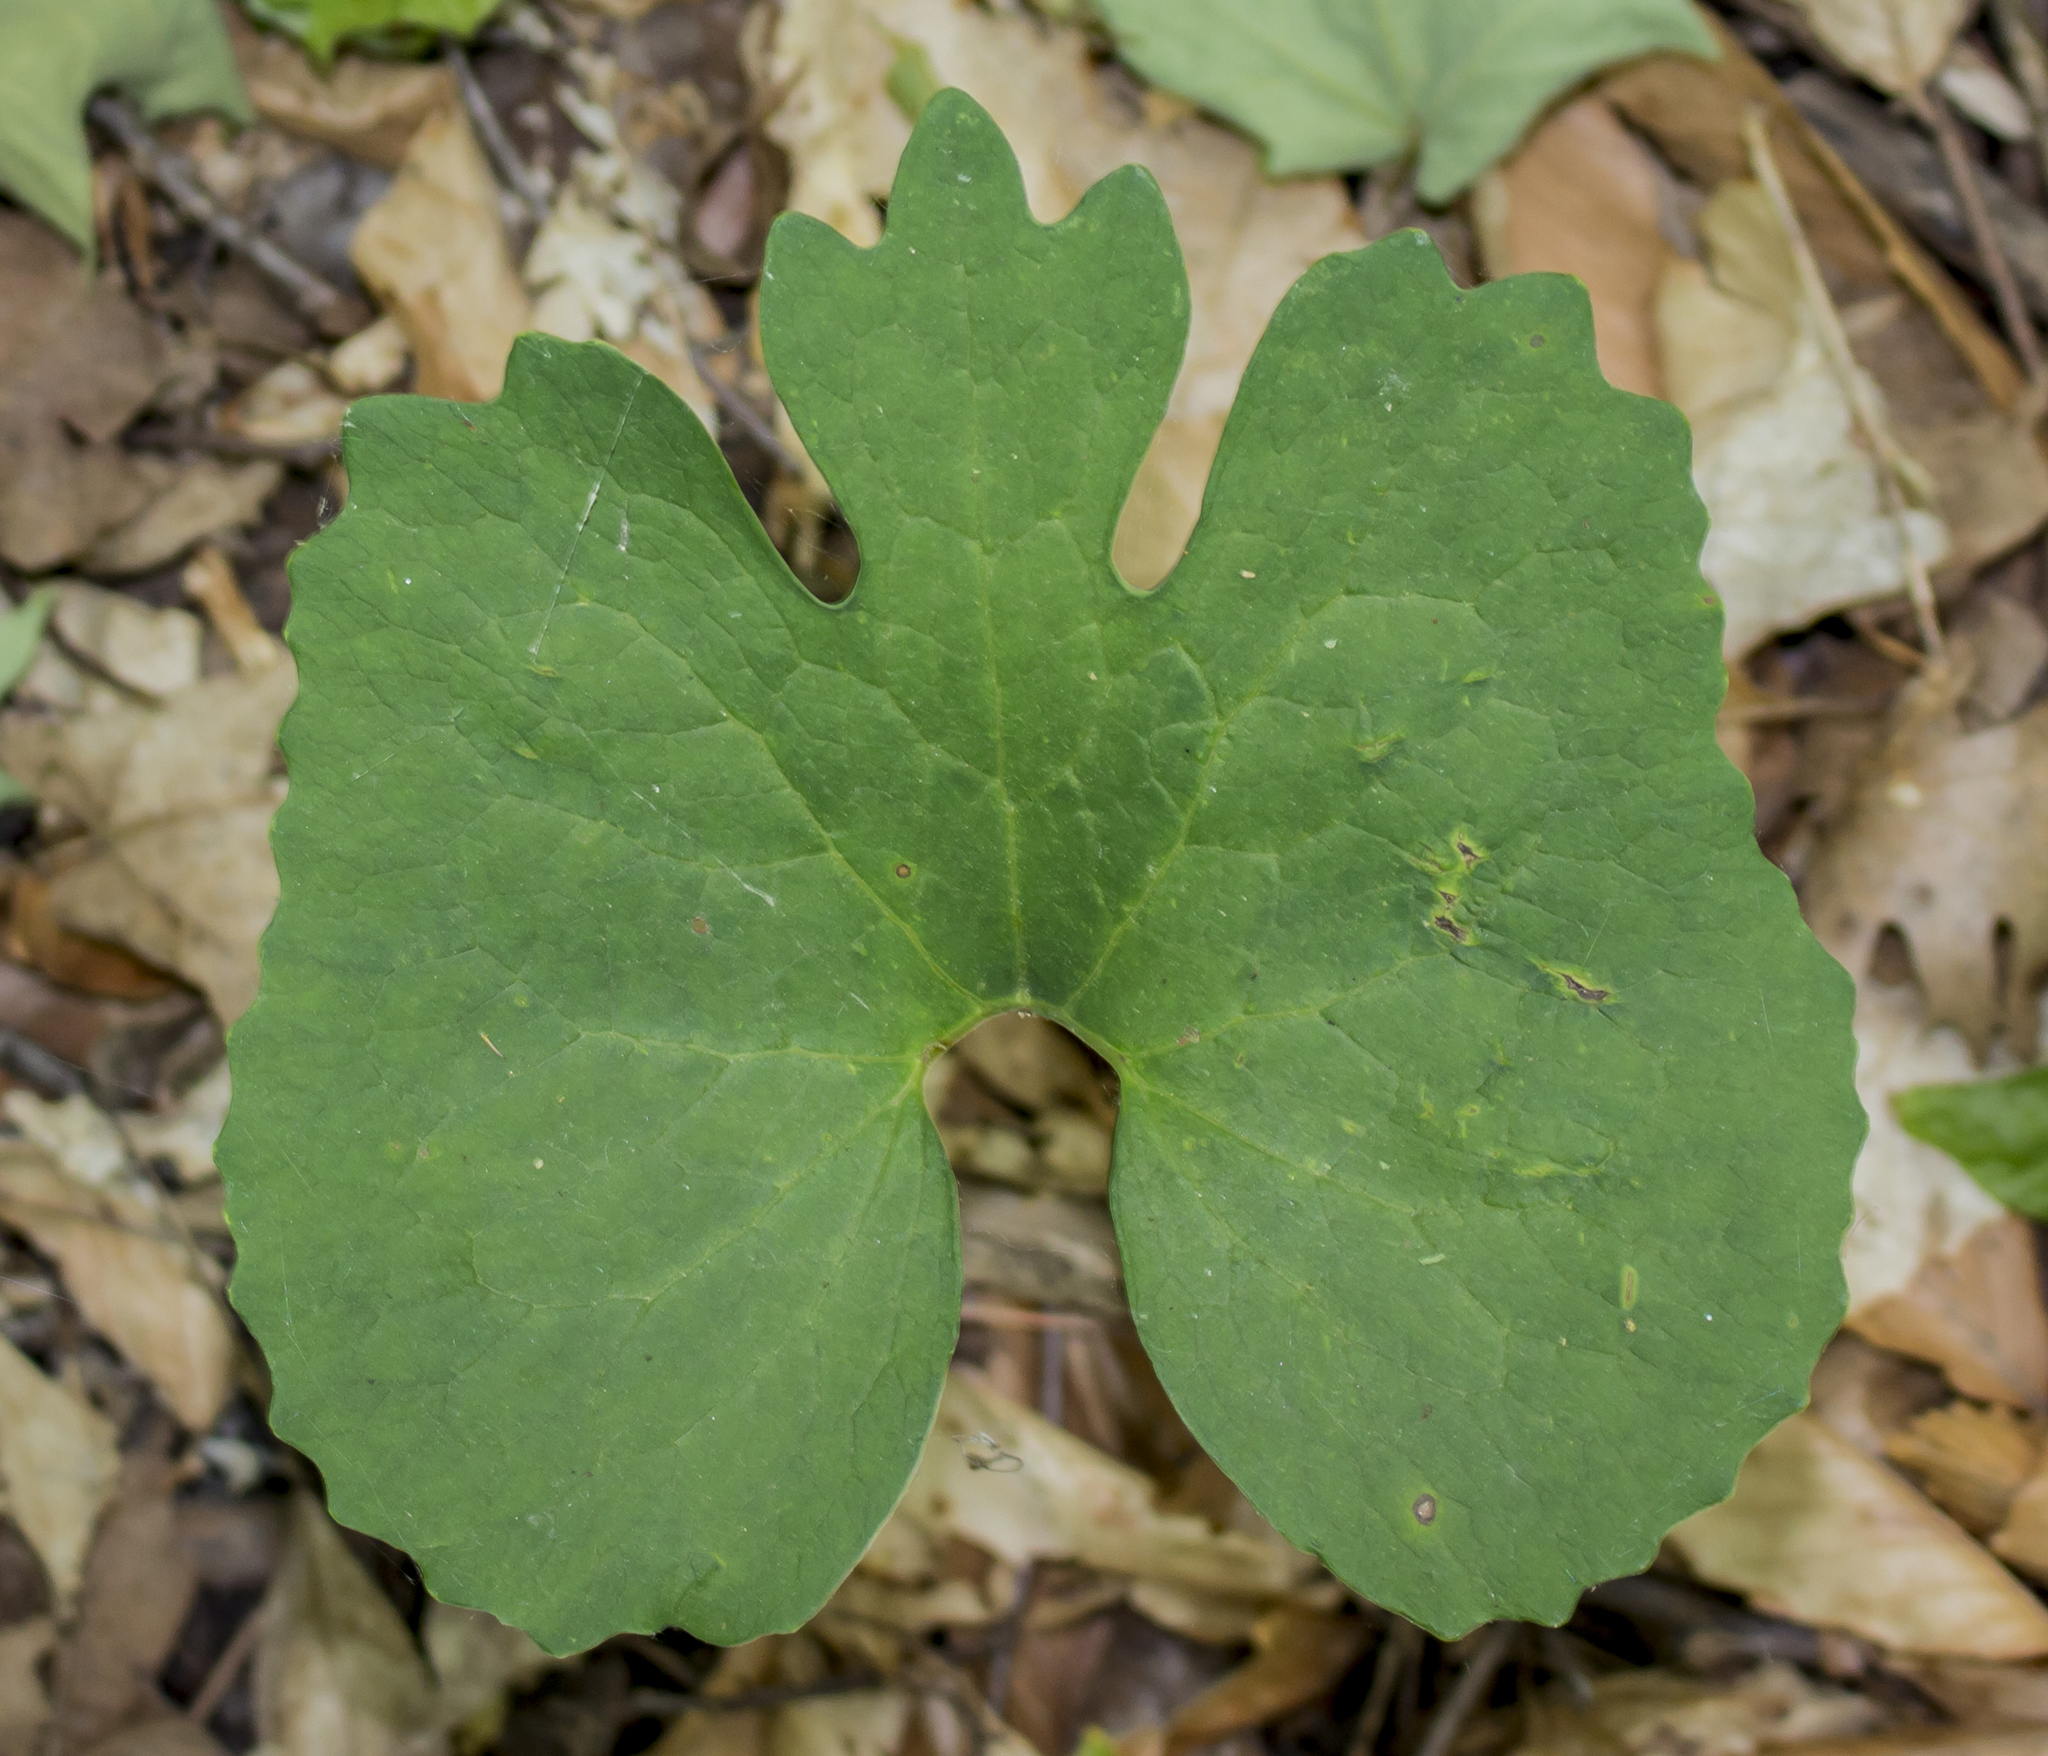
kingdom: Plantae
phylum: Tracheophyta
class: Magnoliopsida
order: Ranunculales
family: Papaveraceae
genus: Sanguinaria
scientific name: Sanguinaria canadensis
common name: Bloodroot
